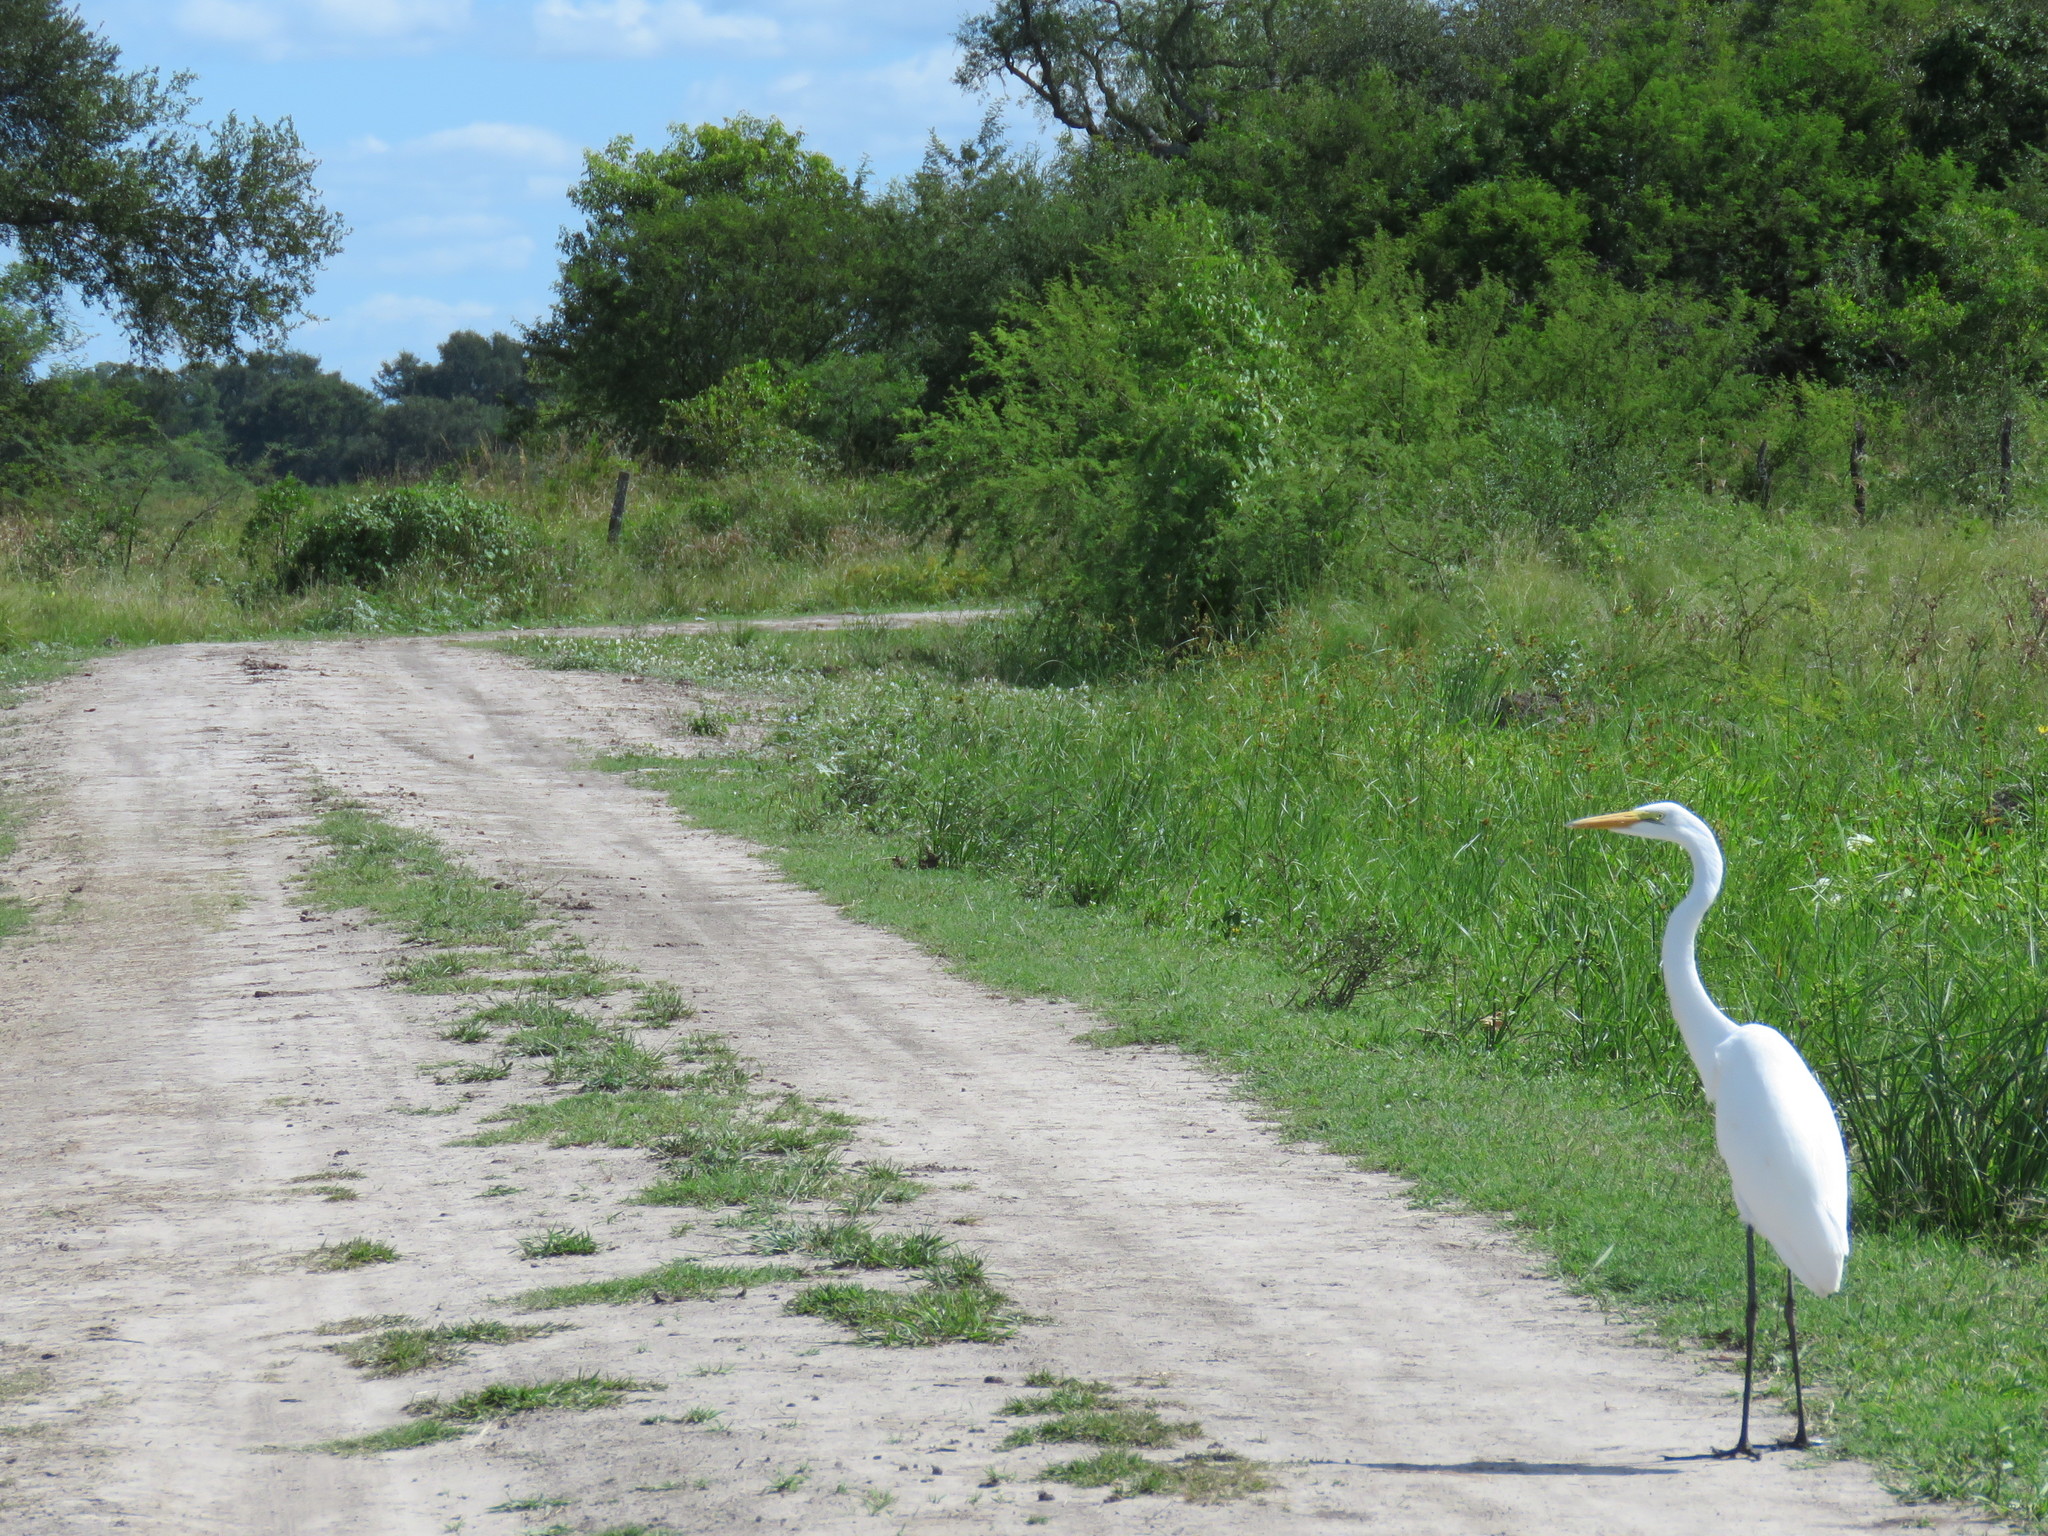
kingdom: Animalia
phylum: Chordata
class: Aves
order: Pelecaniformes
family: Ardeidae
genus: Ardea
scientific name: Ardea alba
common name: Great egret
